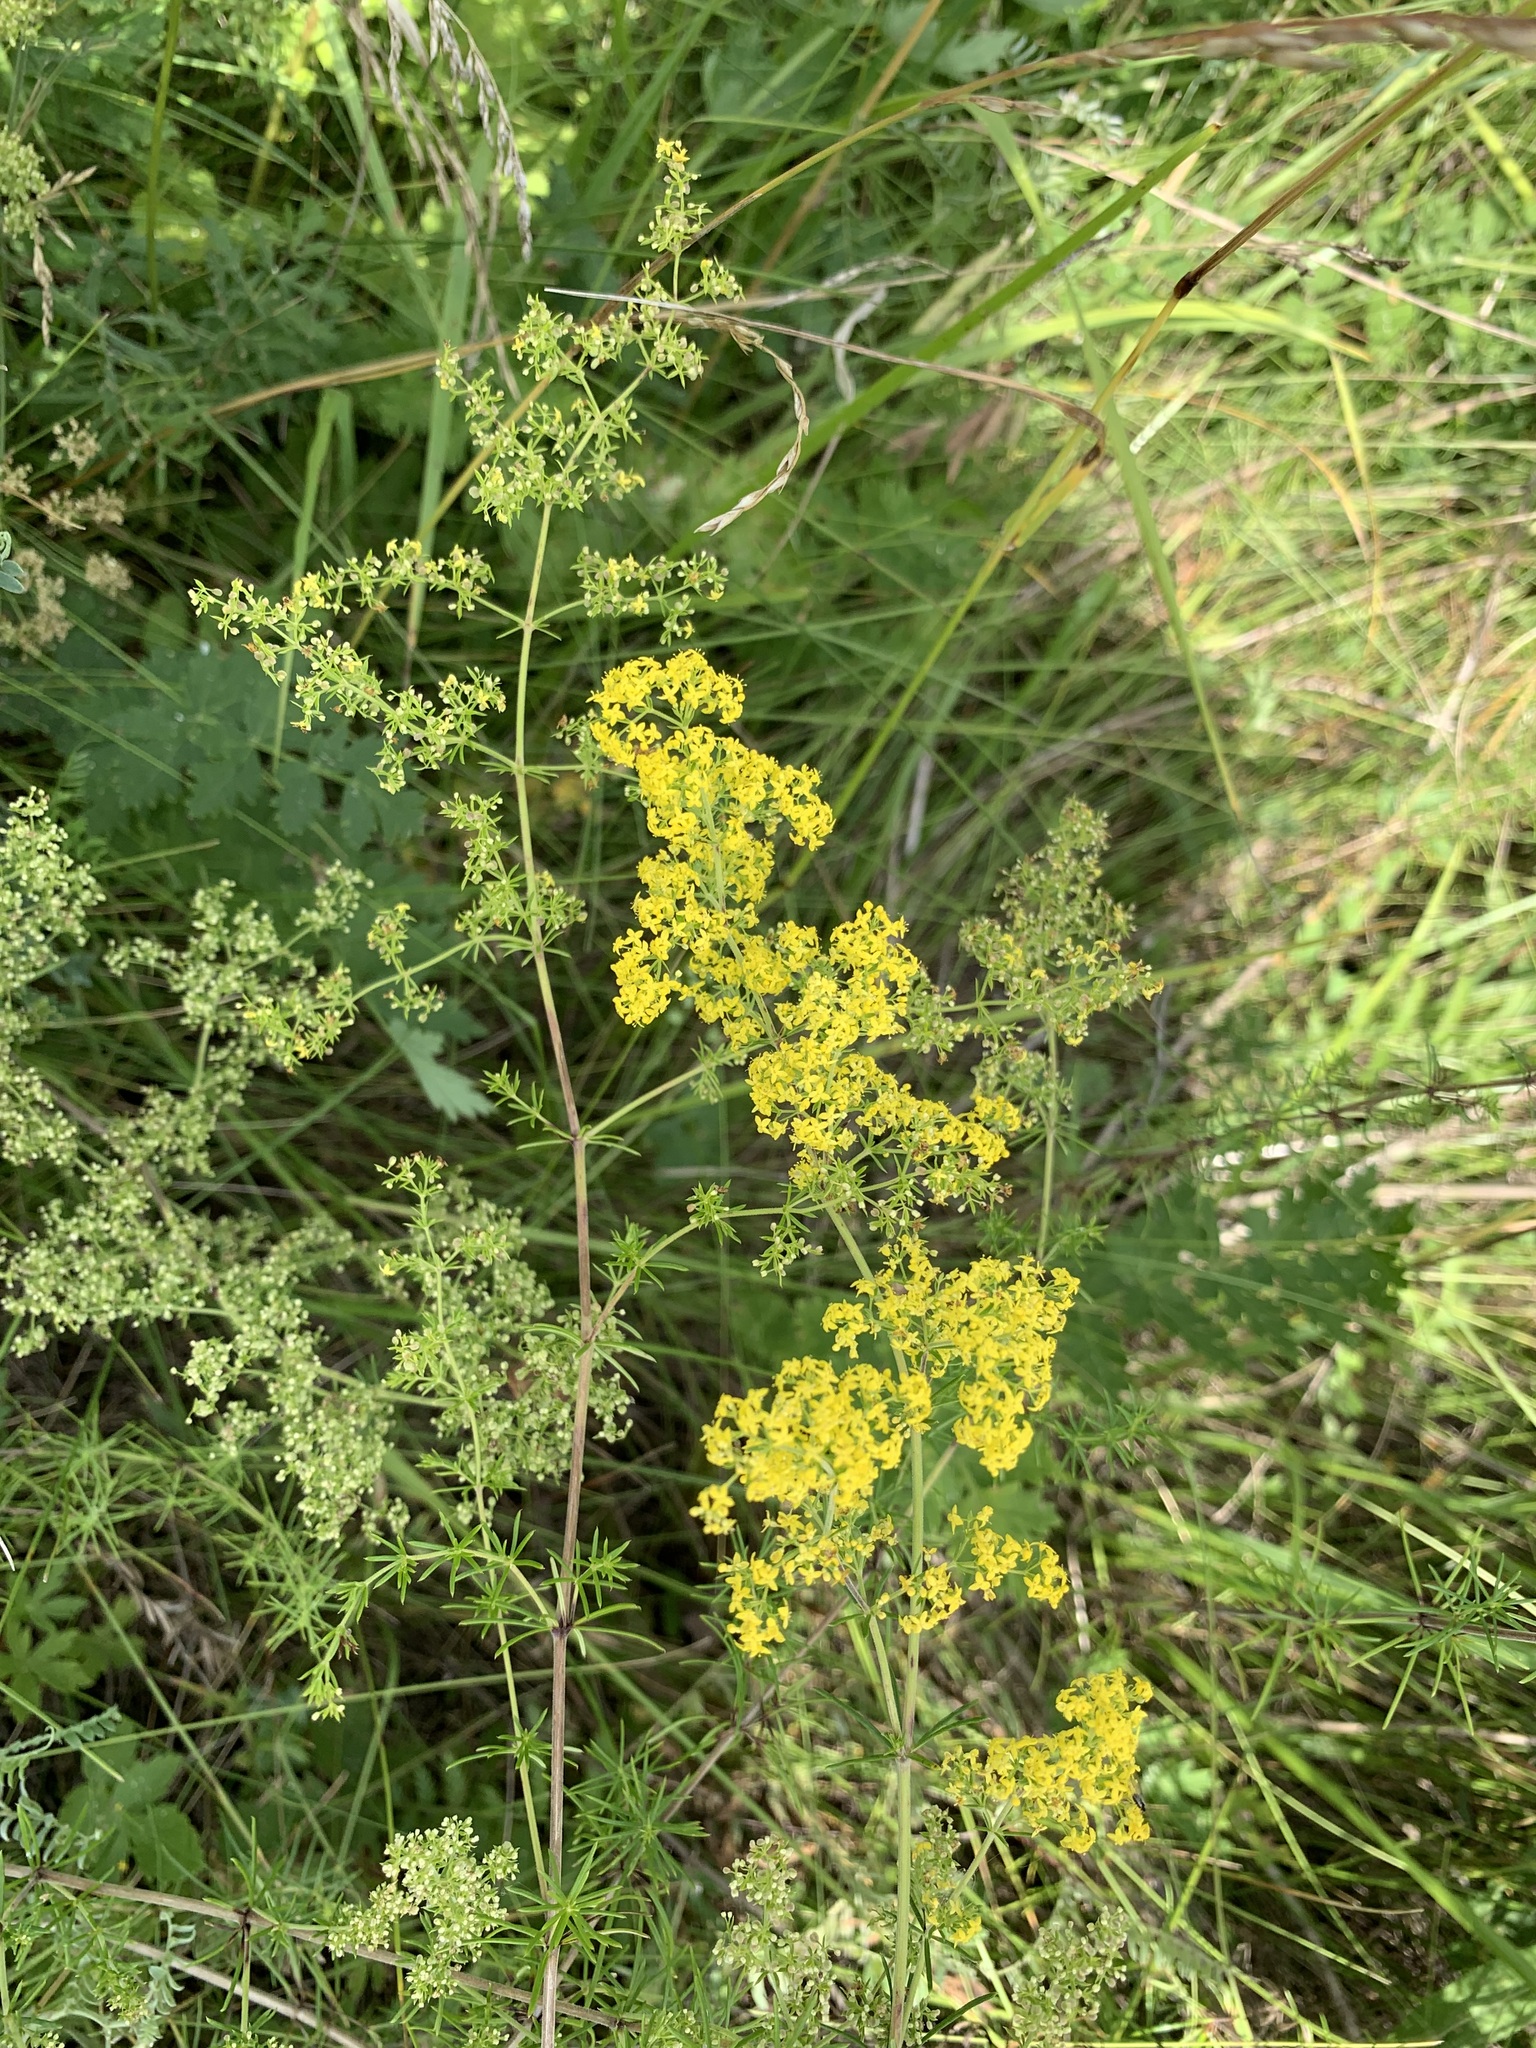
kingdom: Plantae
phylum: Tracheophyta
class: Magnoliopsida
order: Gentianales
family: Rubiaceae
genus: Galium
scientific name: Galium verum
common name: Lady's bedstraw
